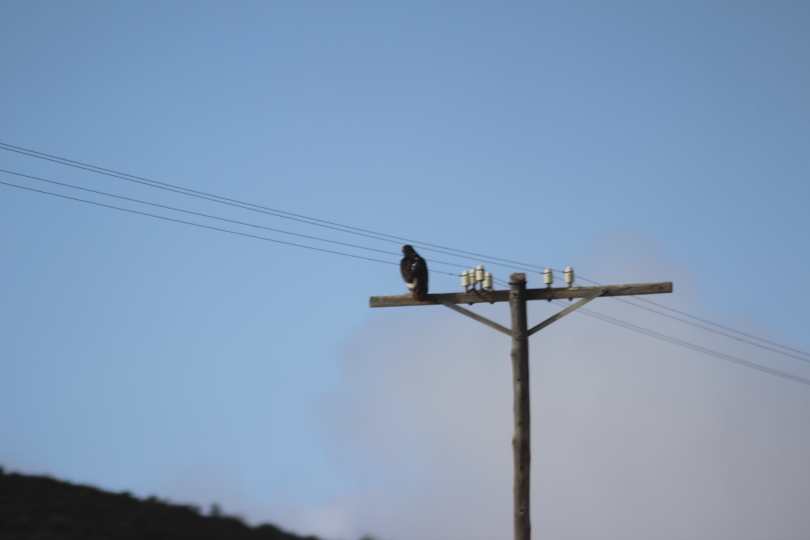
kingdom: Animalia
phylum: Chordata
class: Aves
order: Accipitriformes
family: Accipitridae
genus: Buteo
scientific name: Buteo rufofuscus
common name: Jackal buzzard
